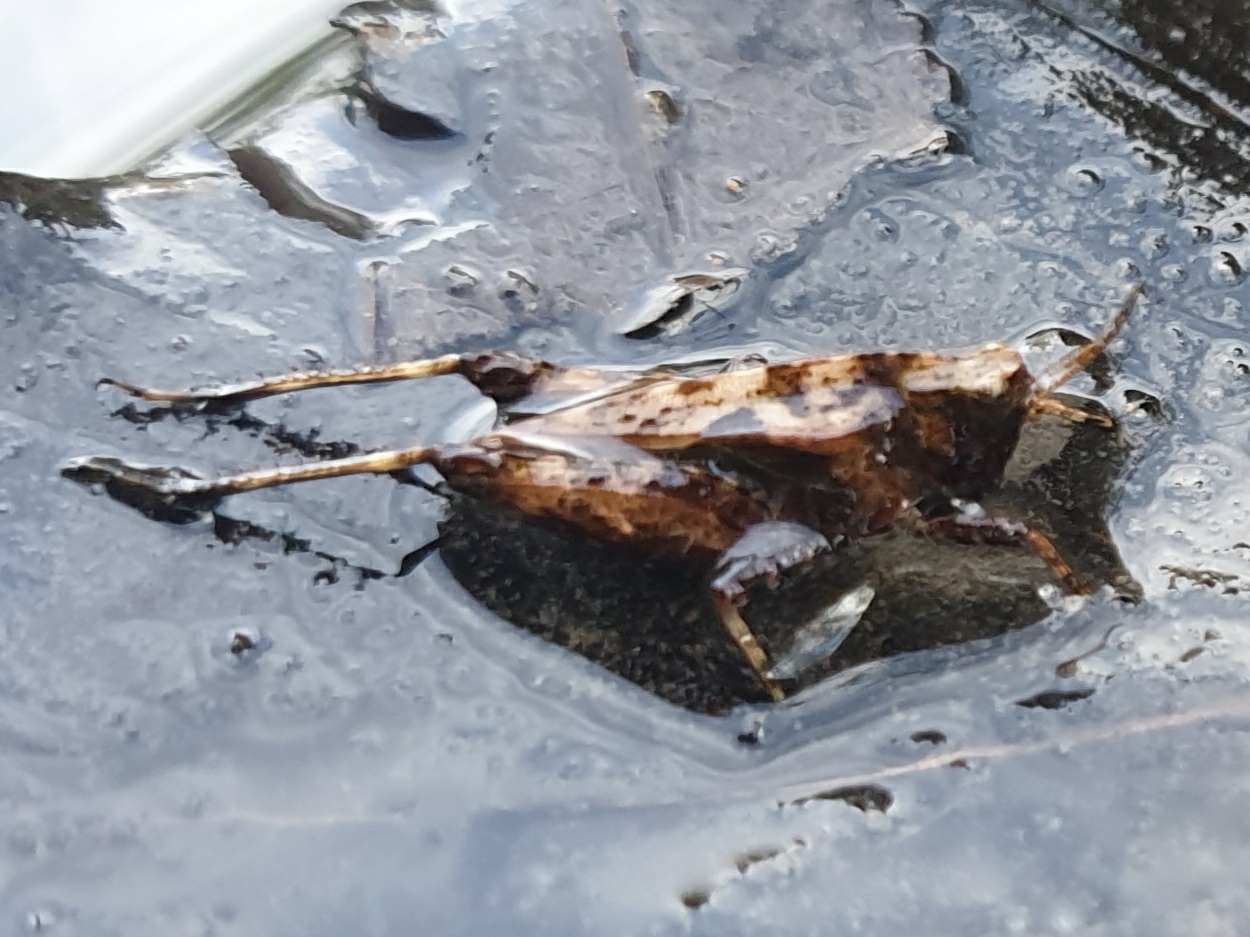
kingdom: Animalia
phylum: Arthropoda
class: Insecta
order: Orthoptera
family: Tetrigidae
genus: Tetrix
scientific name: Tetrix undulata
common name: Common groundhopper
